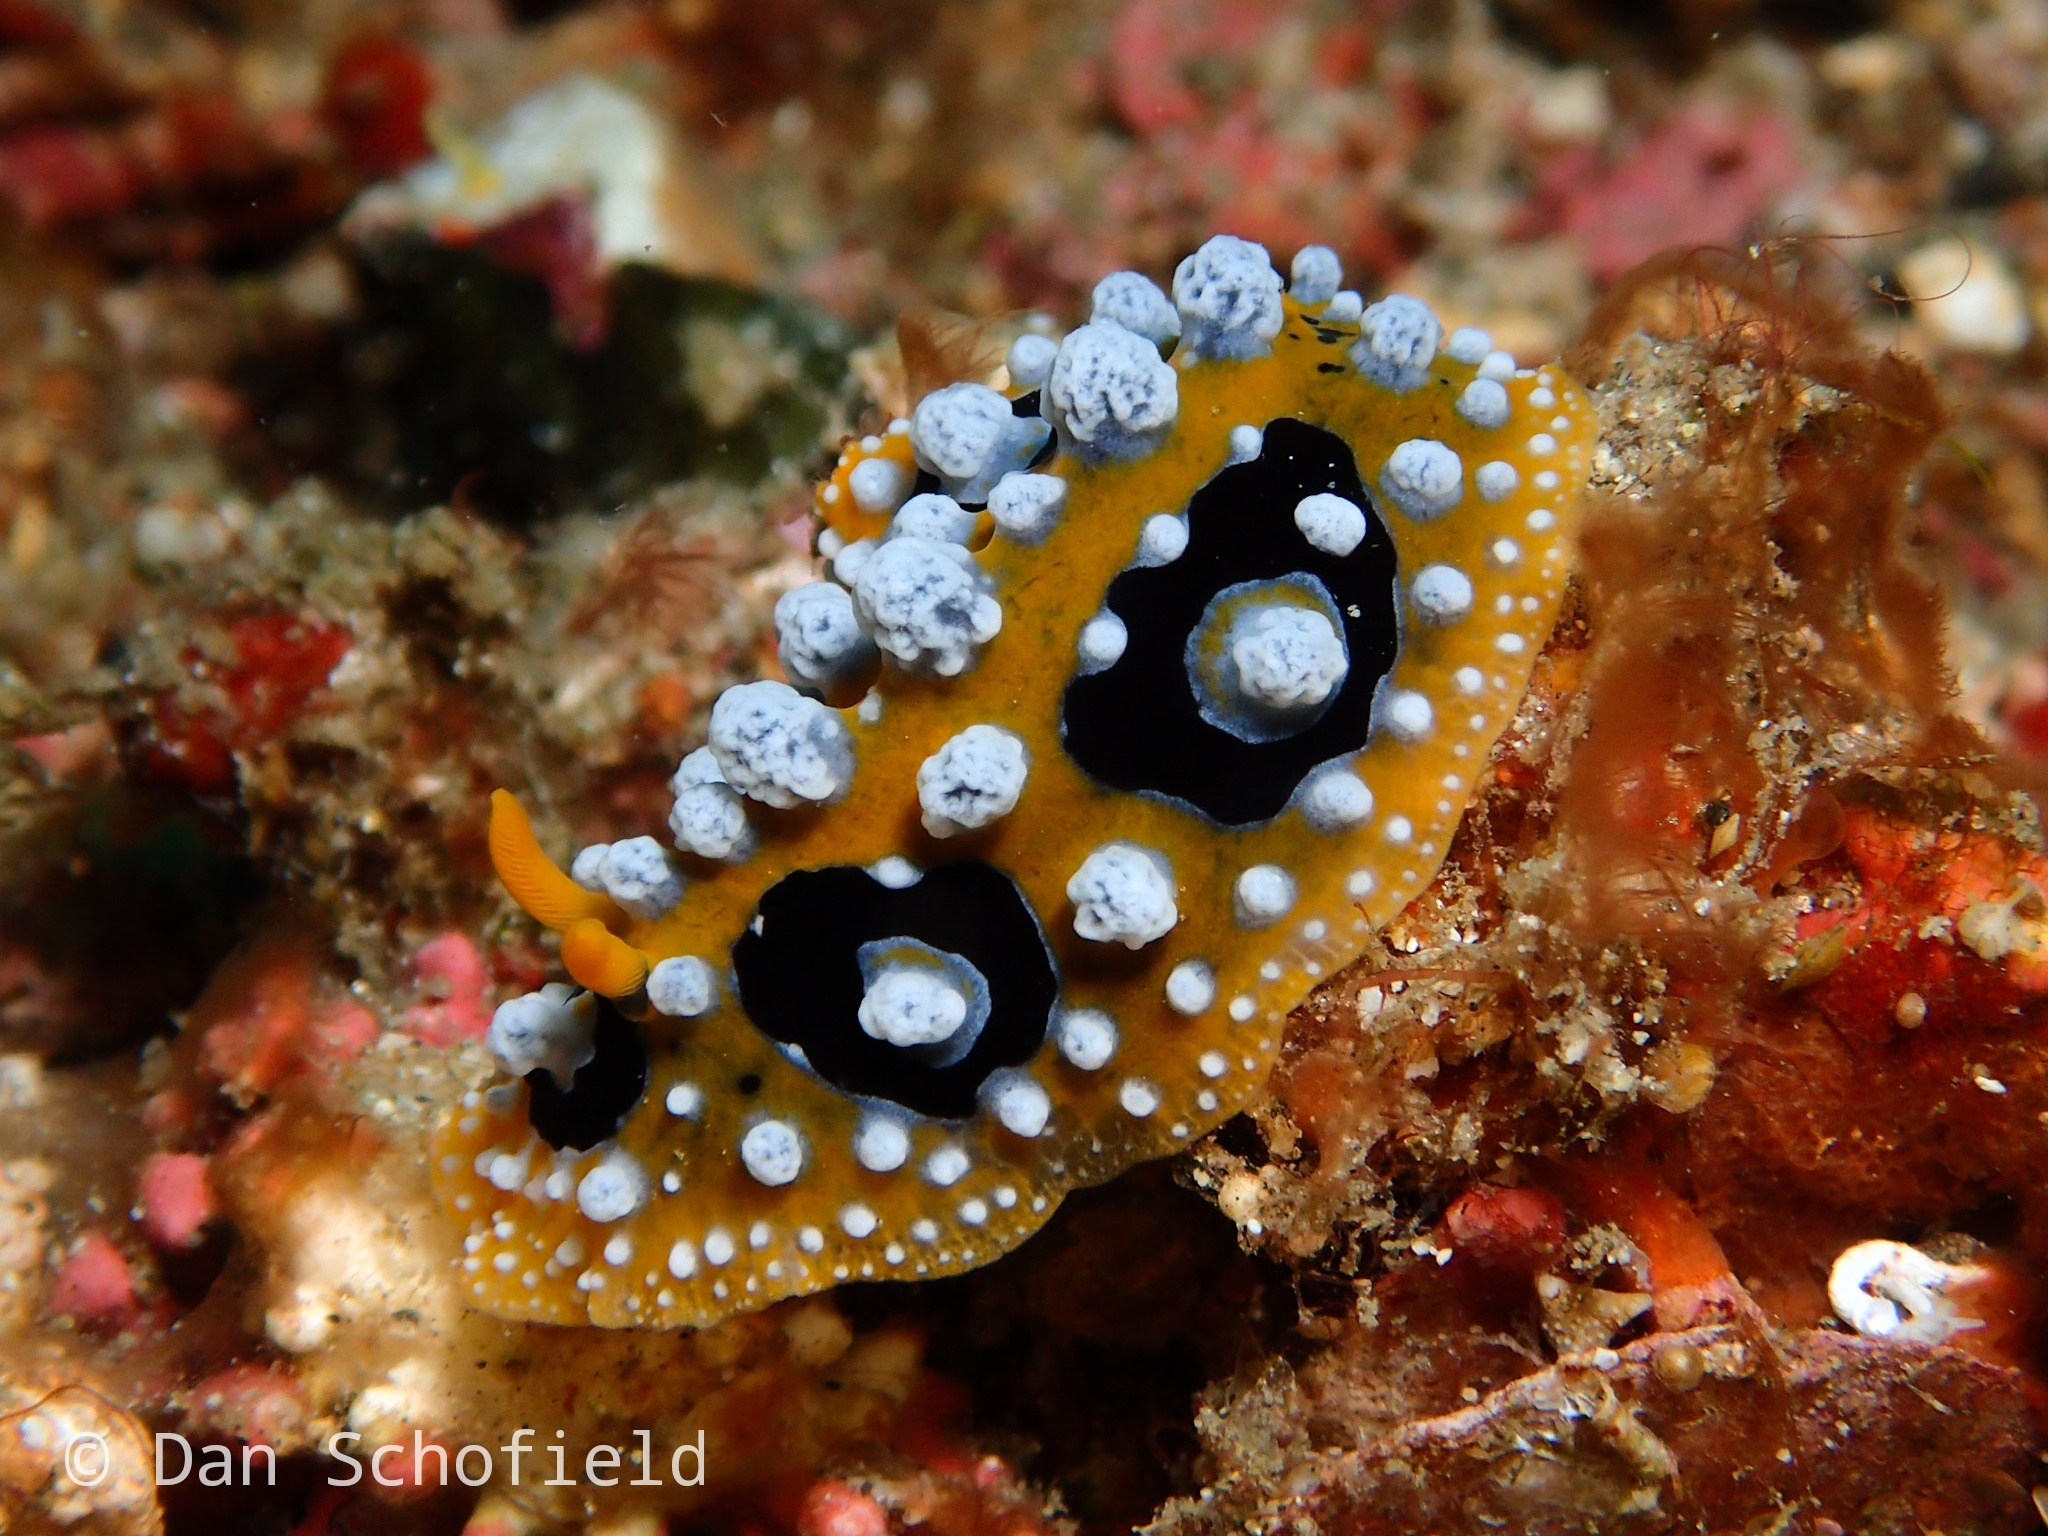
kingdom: Animalia
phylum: Mollusca
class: Gastropoda
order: Nudibranchia
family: Phyllidiidae
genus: Phyllidia
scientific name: Phyllidia ocellata
